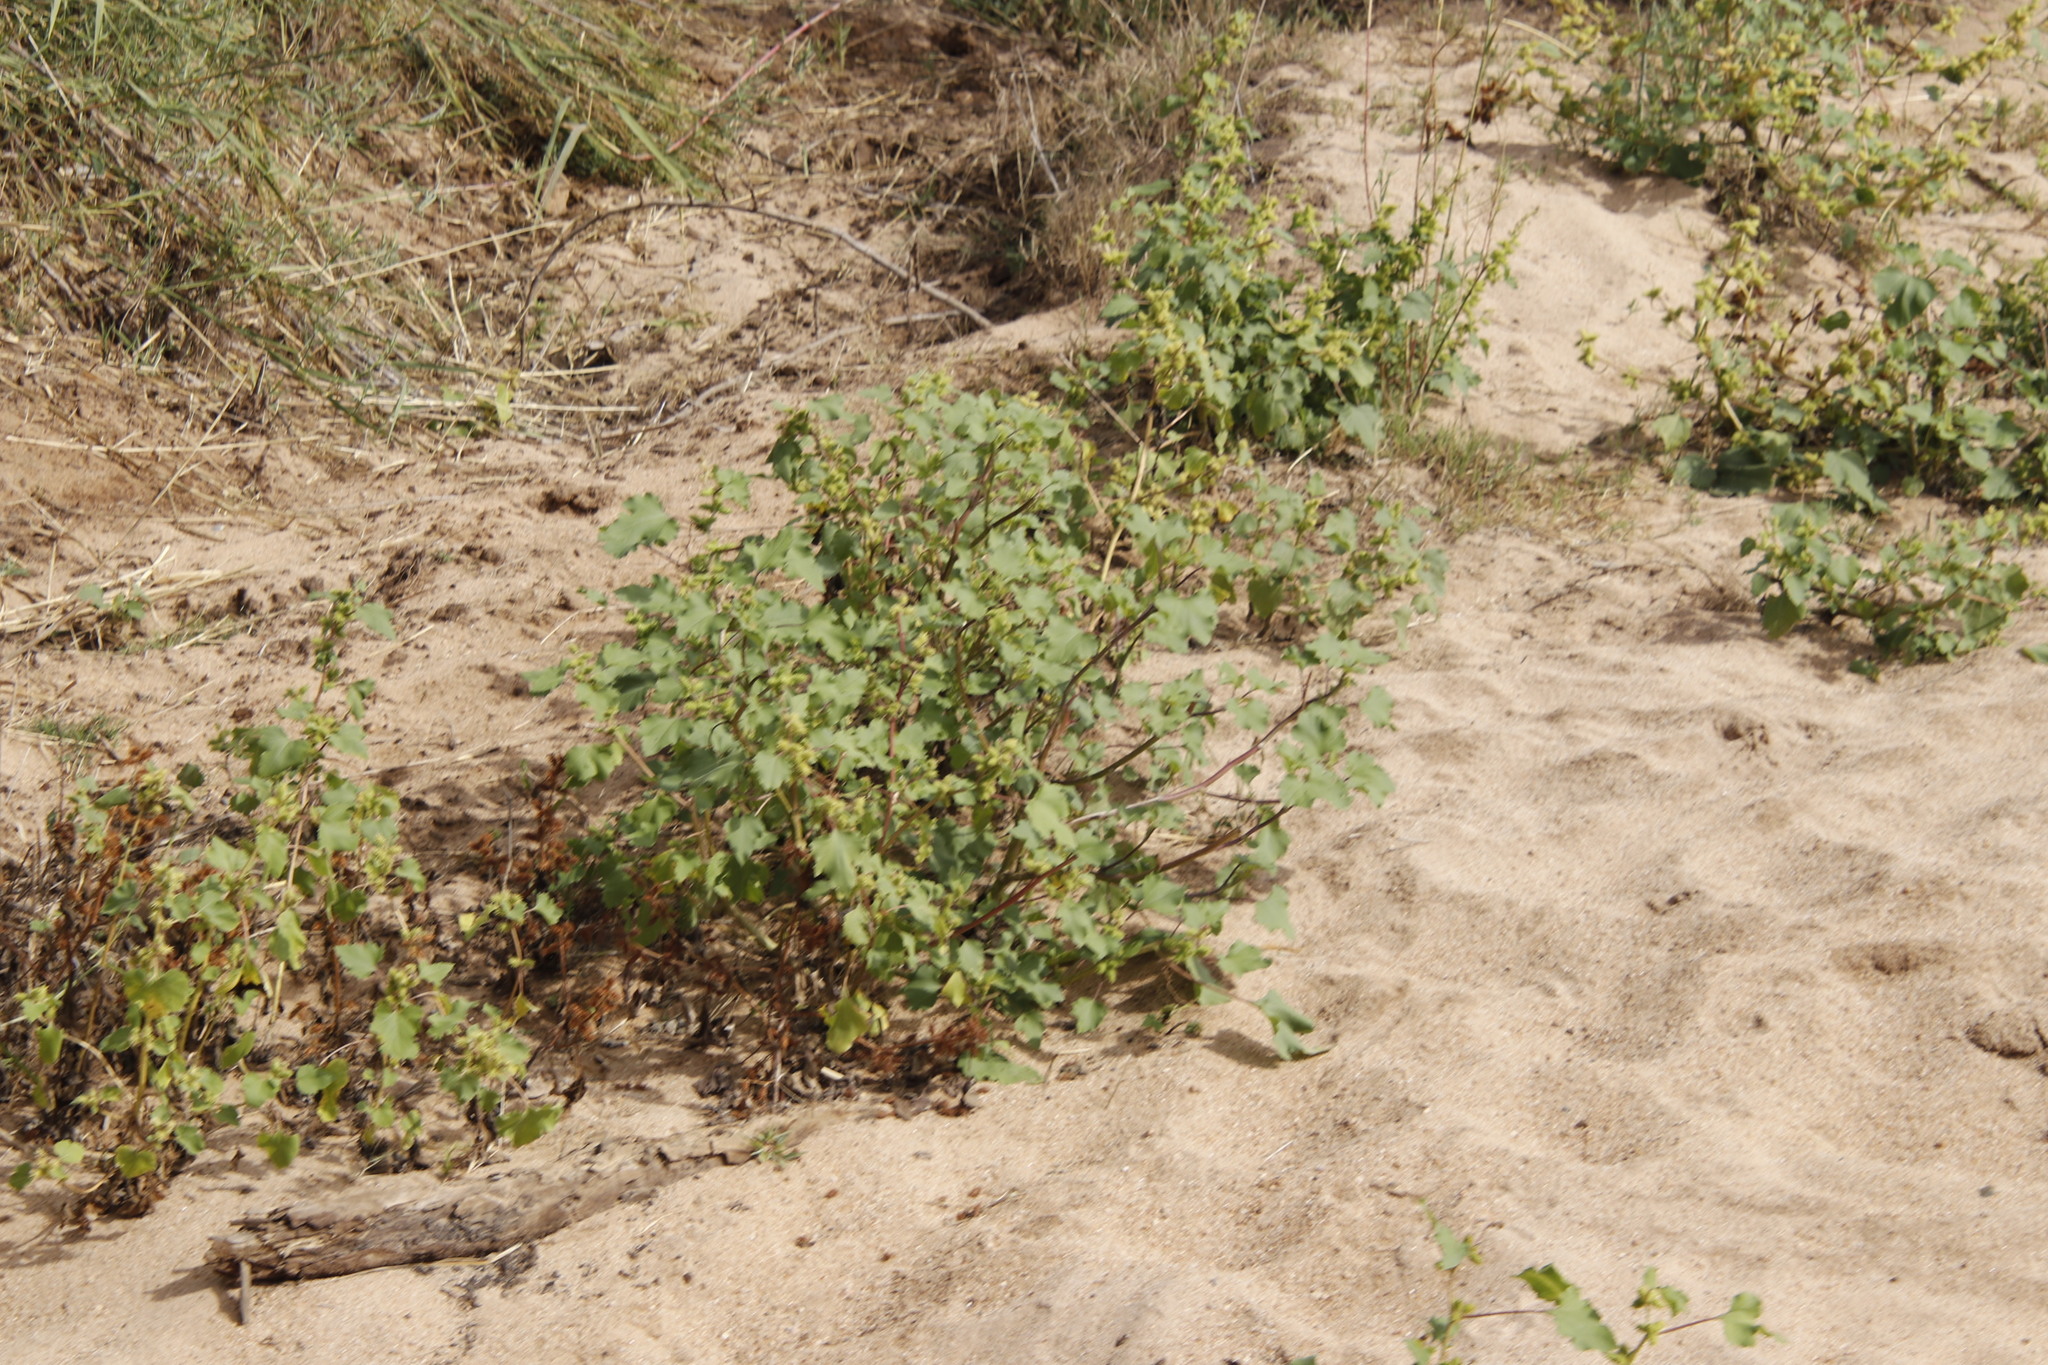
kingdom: Plantae
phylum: Tracheophyta
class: Magnoliopsida
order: Asterales
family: Asteraceae
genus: Xanthium
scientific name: Xanthium strumarium
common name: Rough cocklebur
